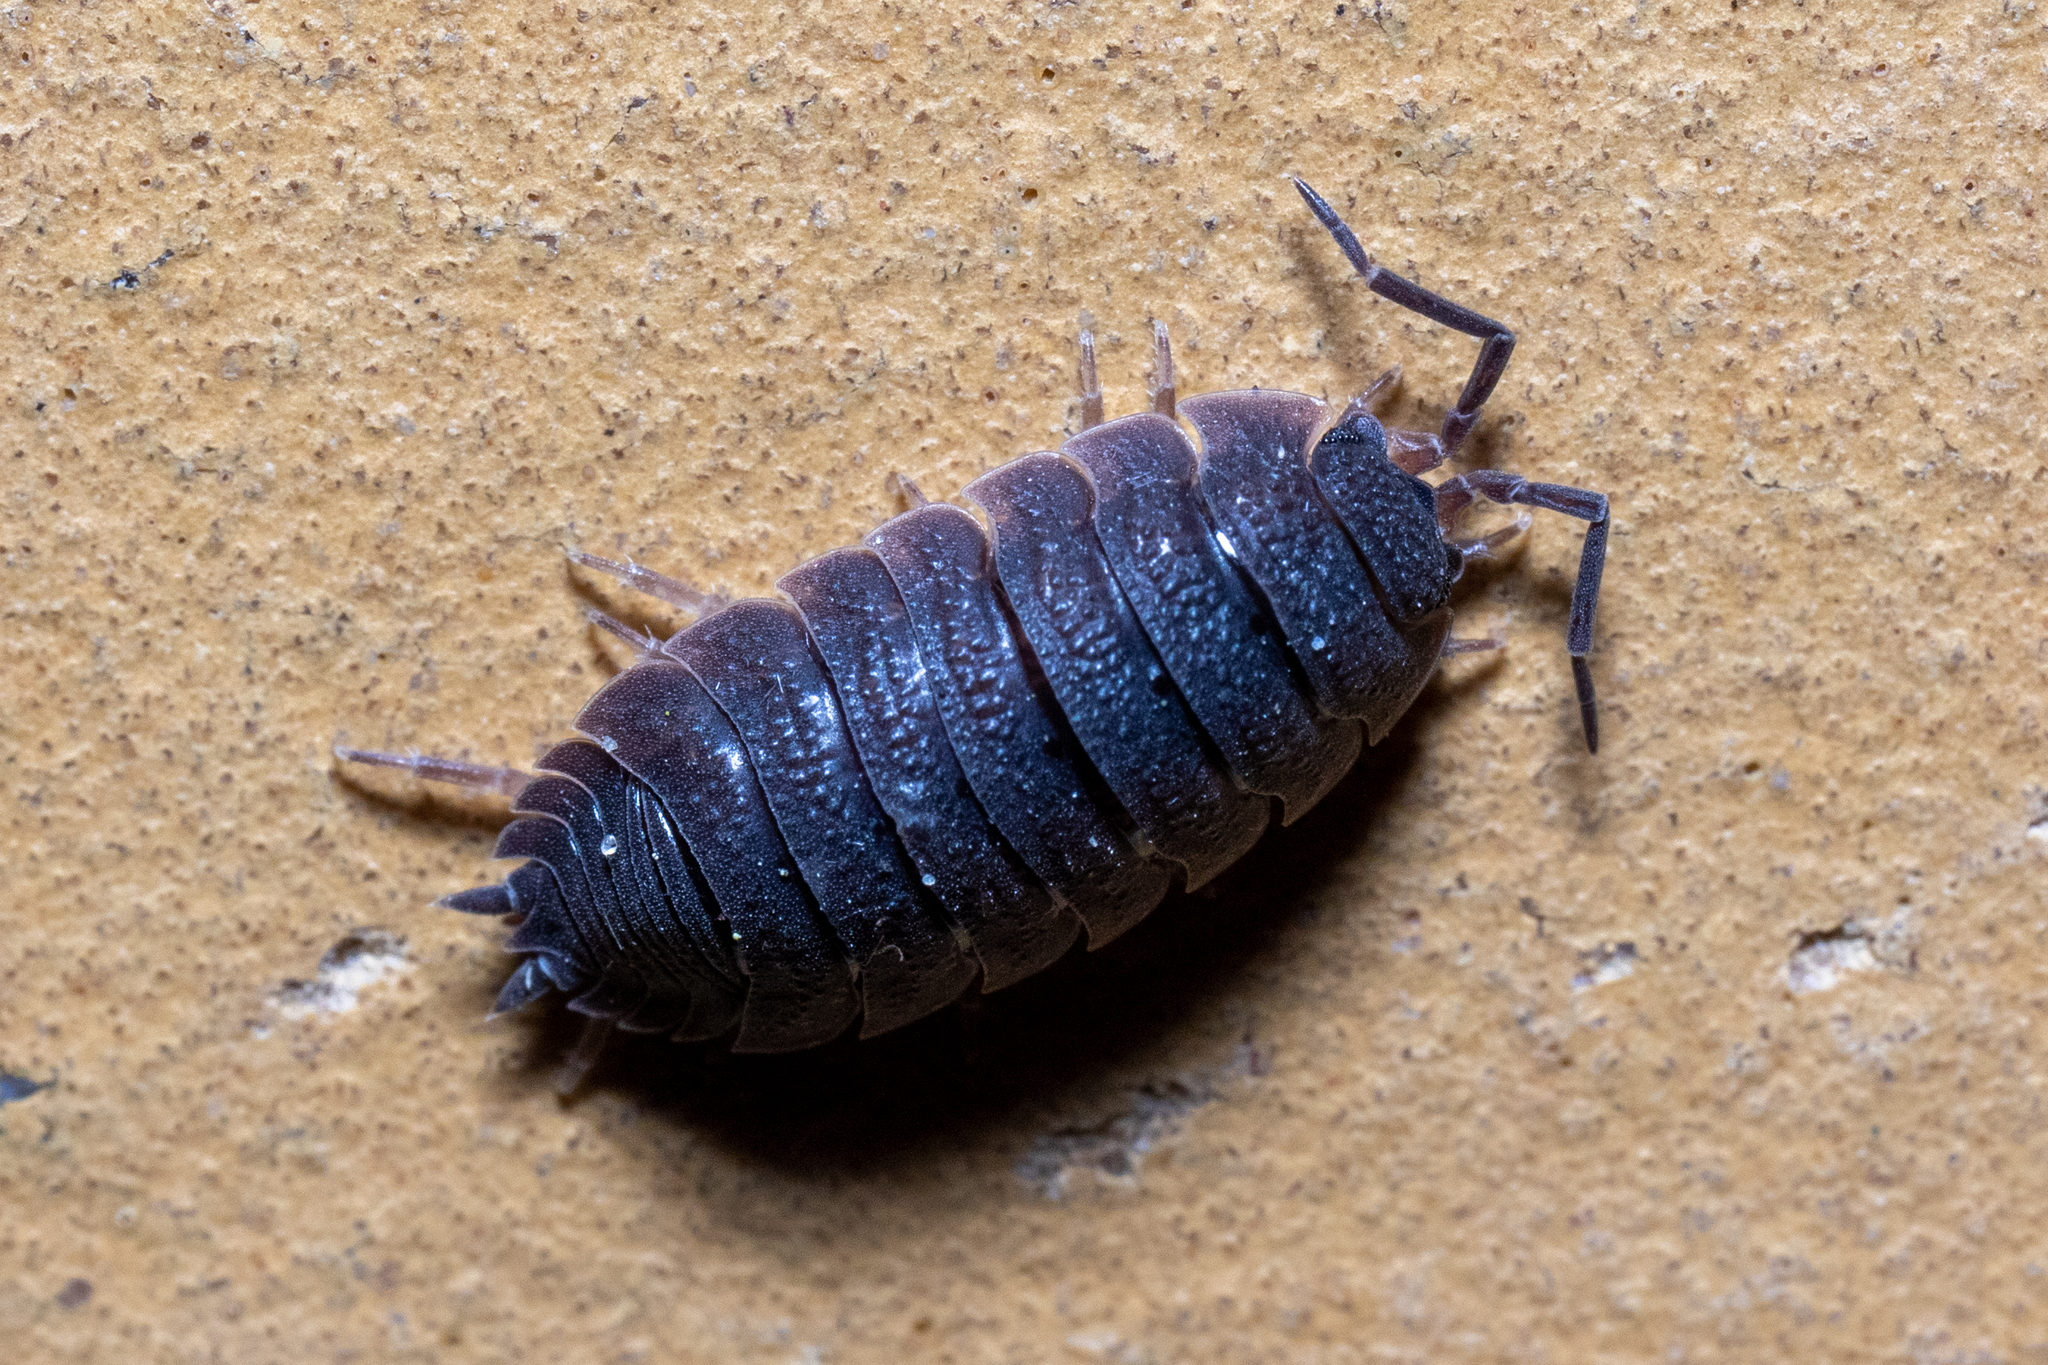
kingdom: Animalia
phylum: Arthropoda
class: Malacostraca
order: Isopoda
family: Porcellionidae
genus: Porcellio
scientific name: Porcellio scaber
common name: Common rough woodlouse
